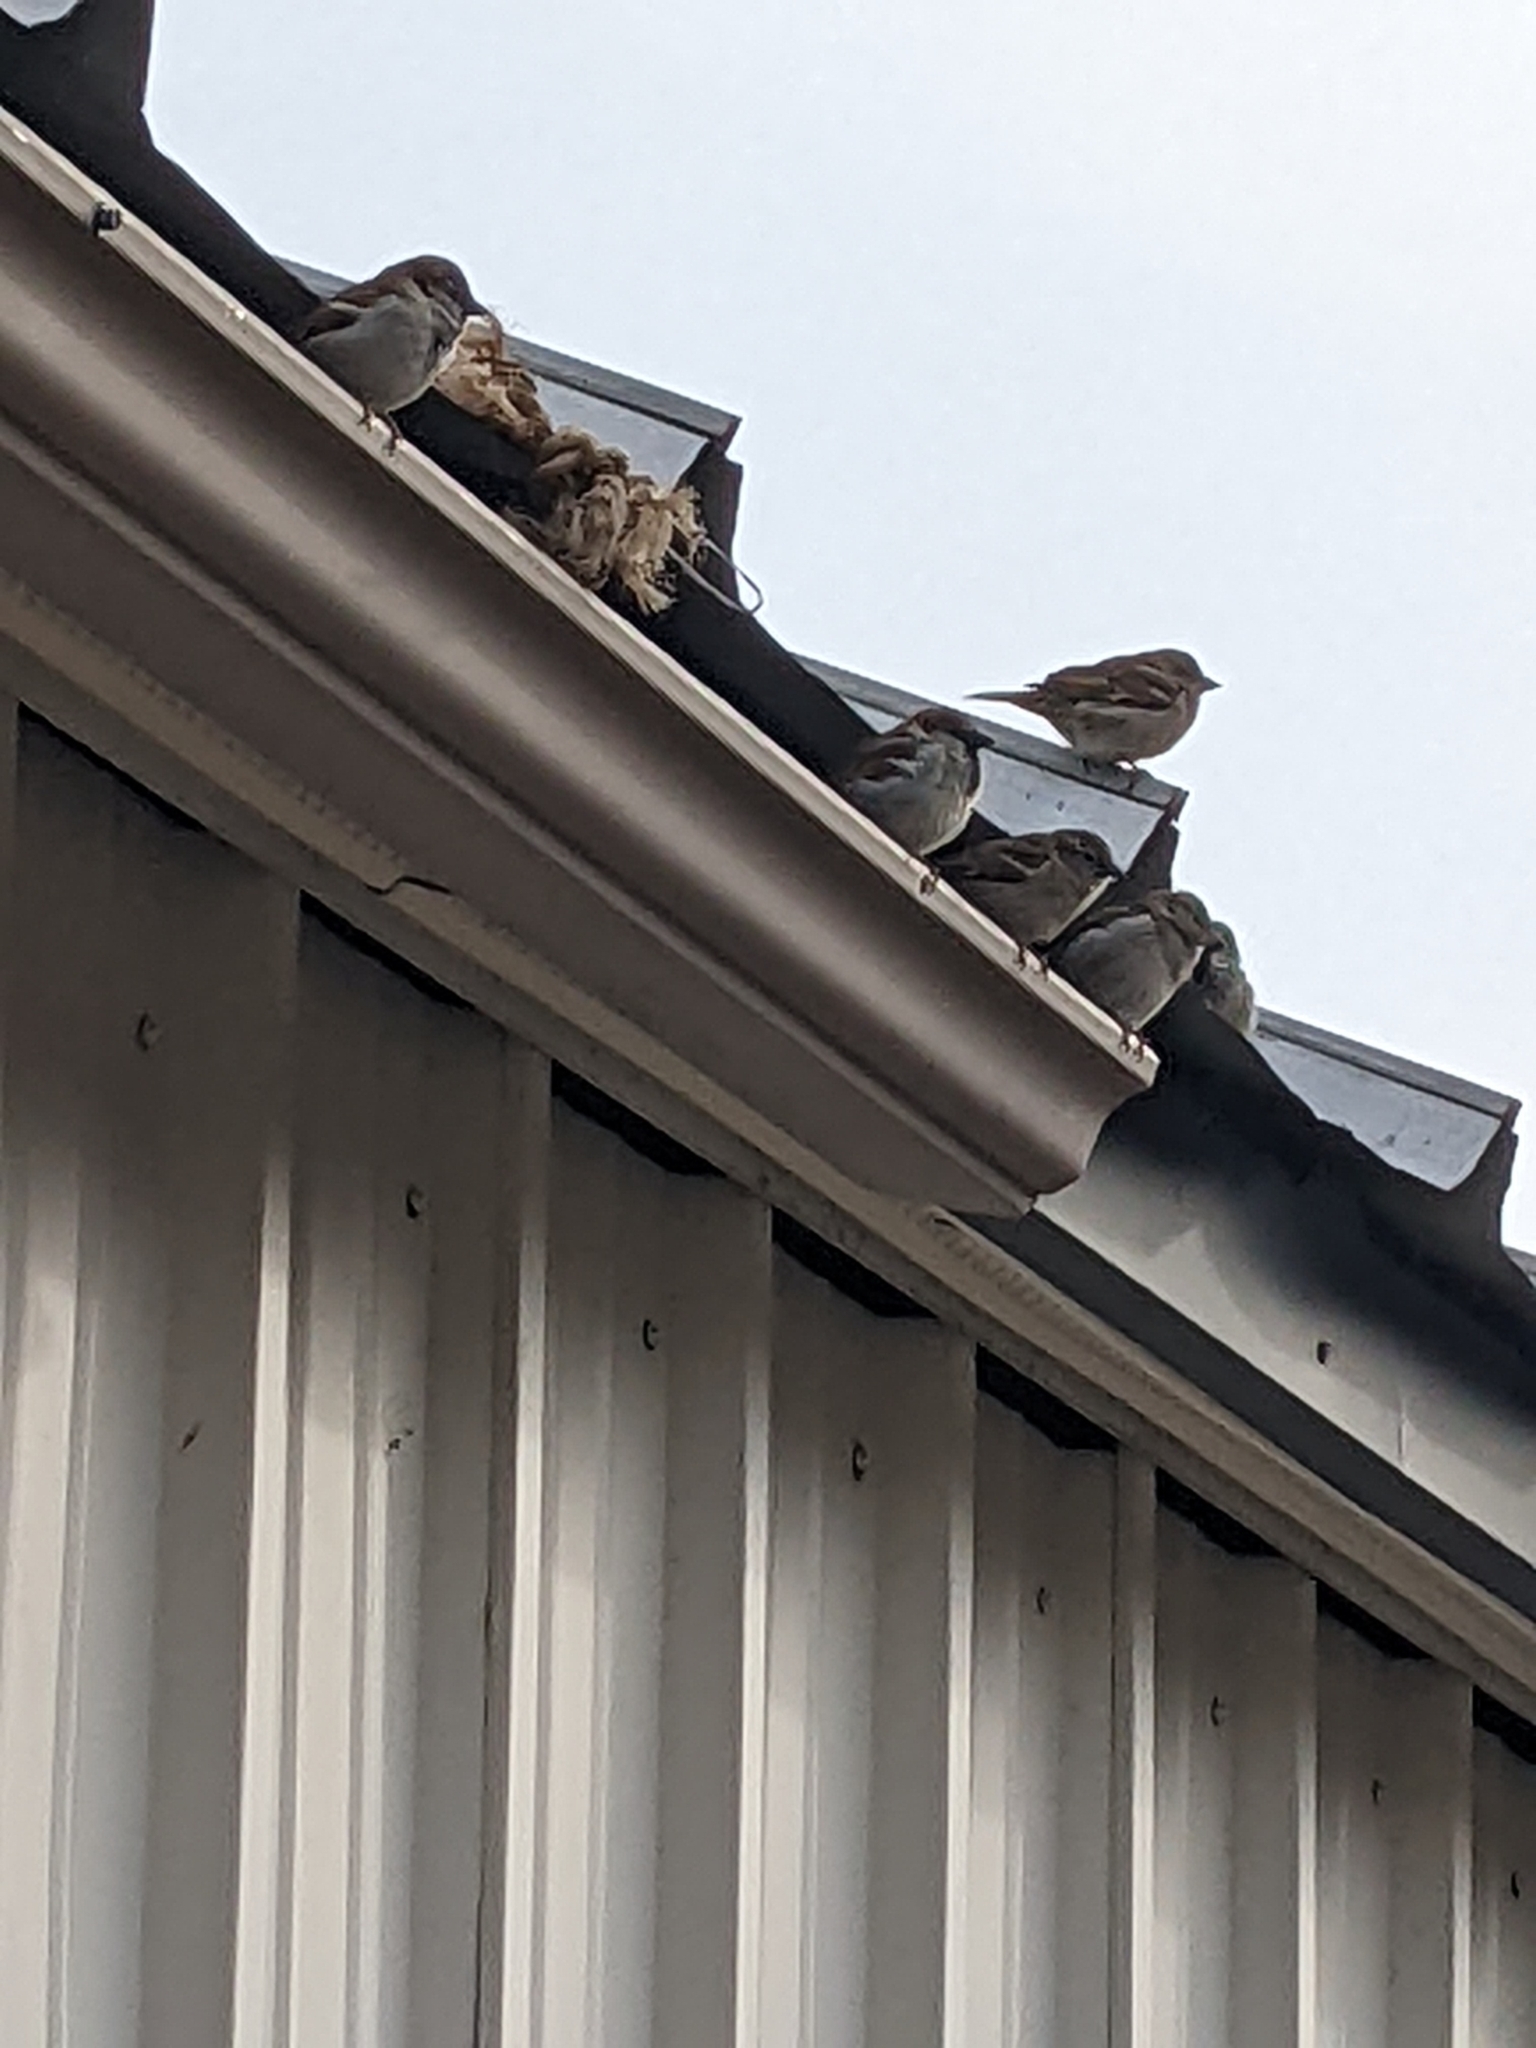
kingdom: Animalia
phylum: Chordata
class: Aves
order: Passeriformes
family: Passeridae
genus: Passer
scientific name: Passer domesticus
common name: House sparrow
